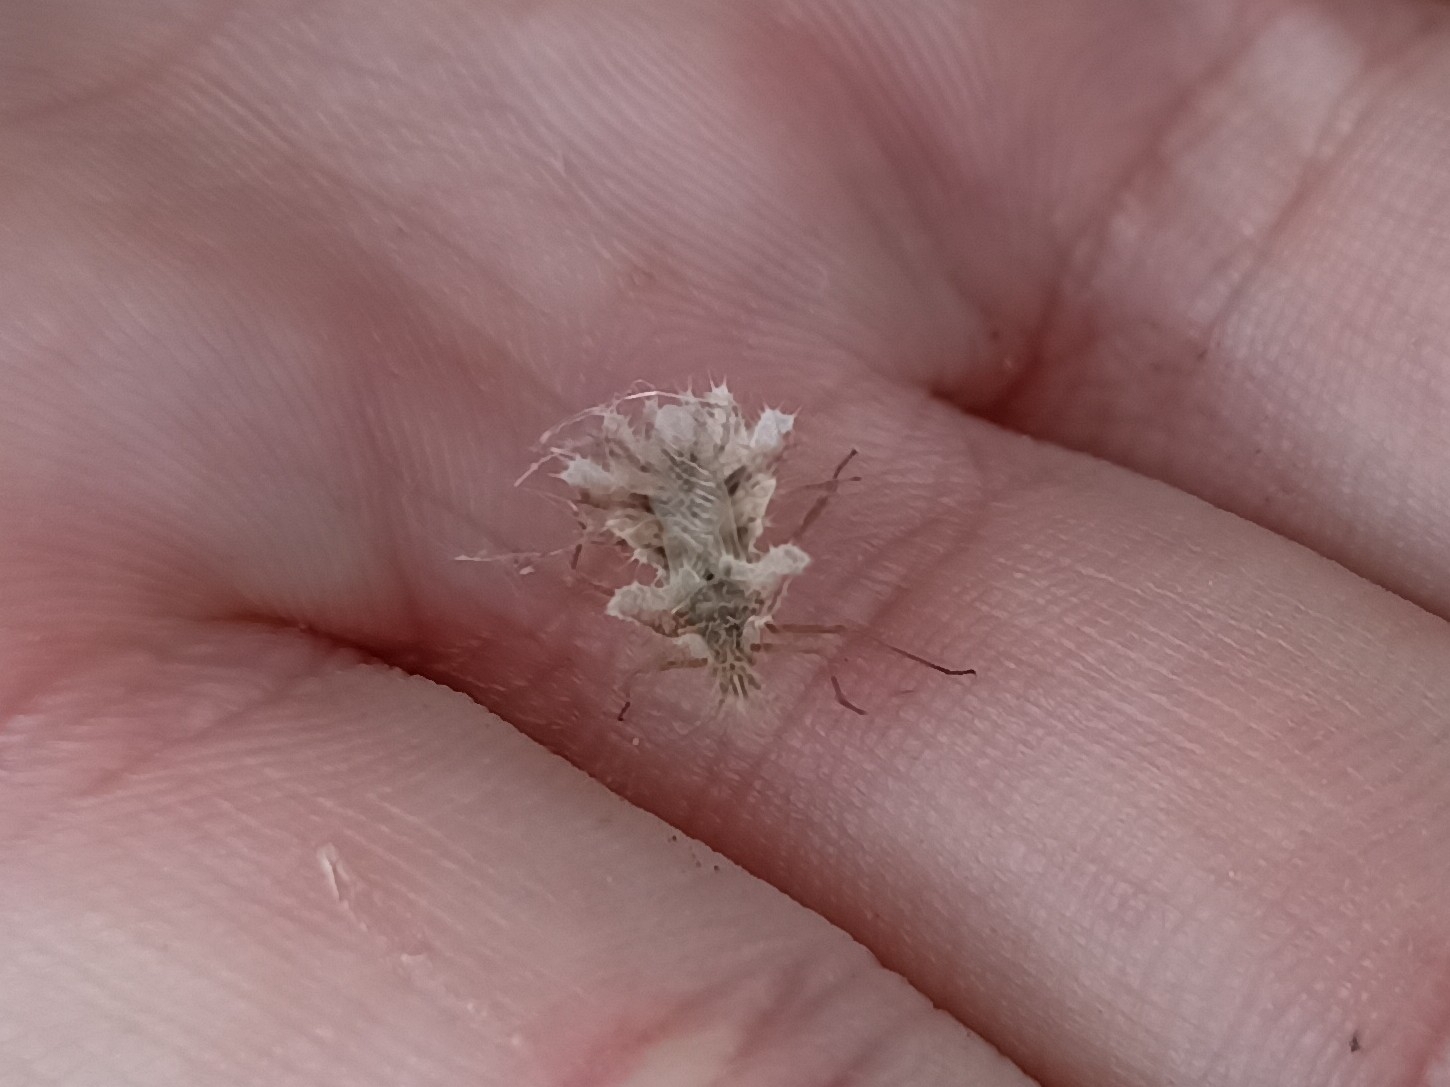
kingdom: Animalia
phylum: Arthropoda
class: Insecta
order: Hemiptera
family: Coreidae
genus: Phyllomorpha
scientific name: Phyllomorpha laciniata
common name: Golden egg bug
